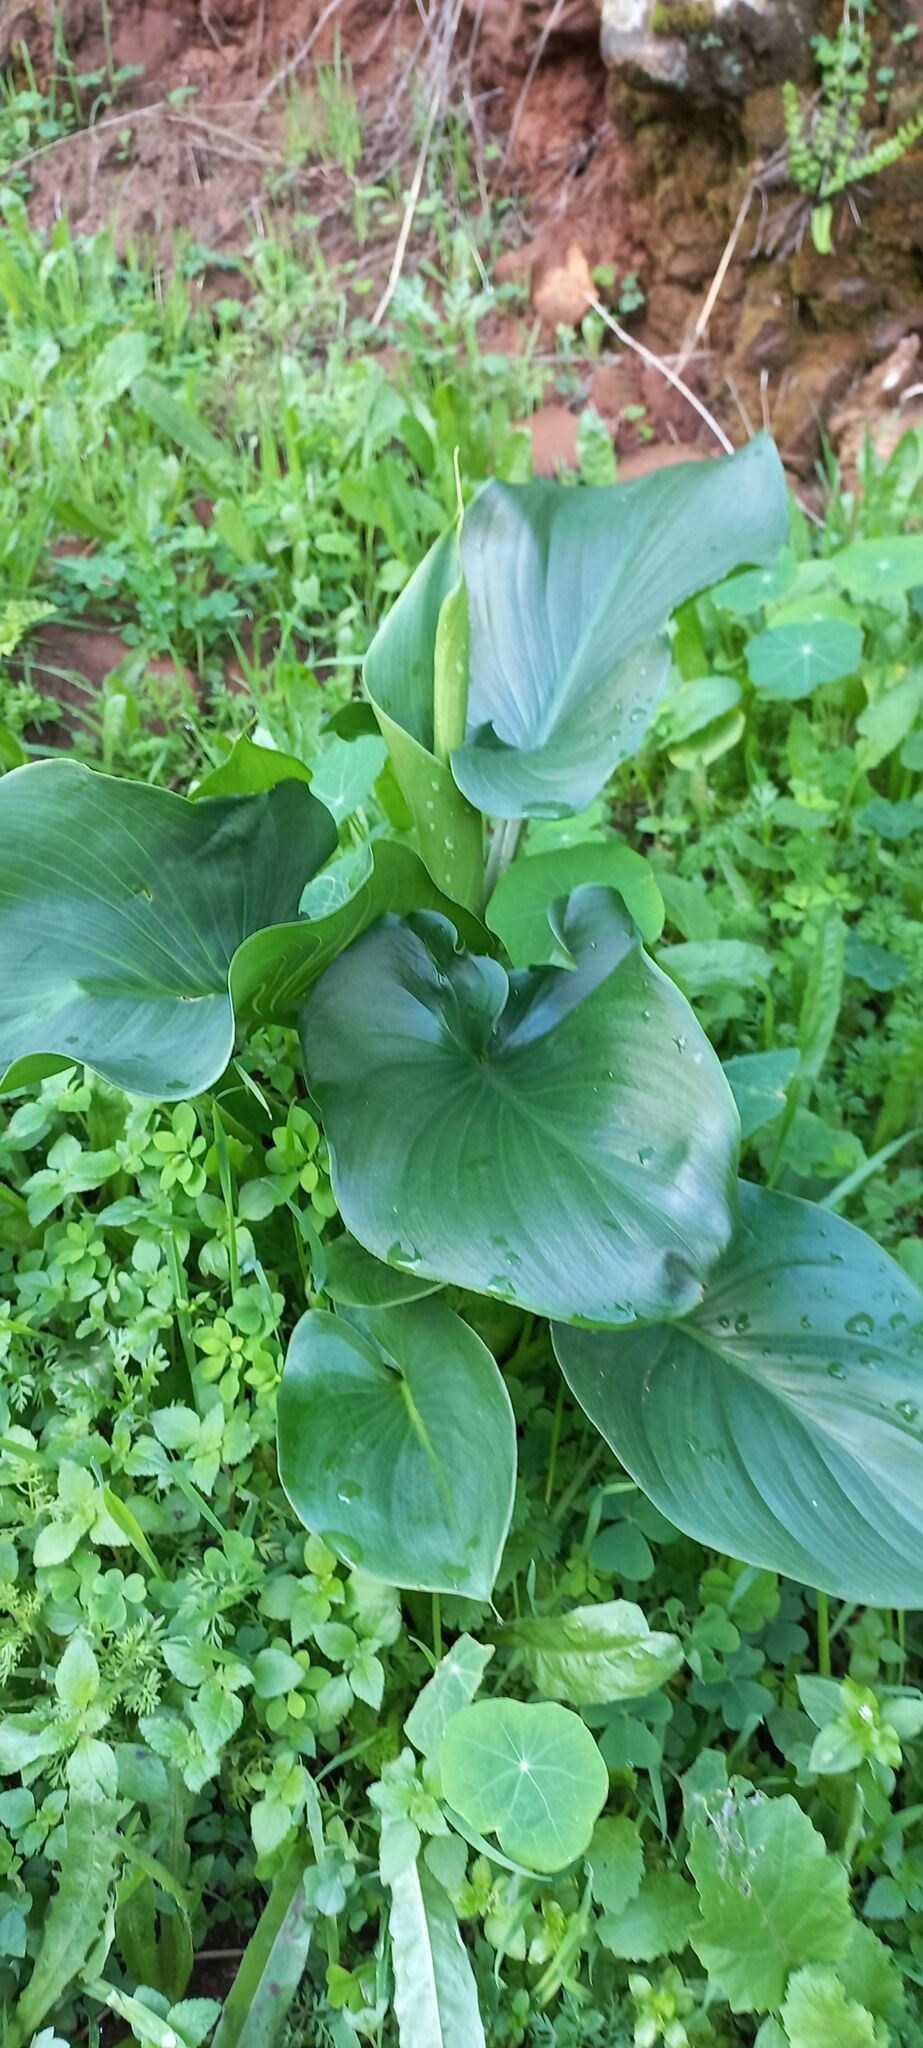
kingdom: Plantae
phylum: Tracheophyta
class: Liliopsida
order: Alismatales
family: Araceae
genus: Zantedeschia
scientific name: Zantedeschia aethiopica
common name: Altar-lily
